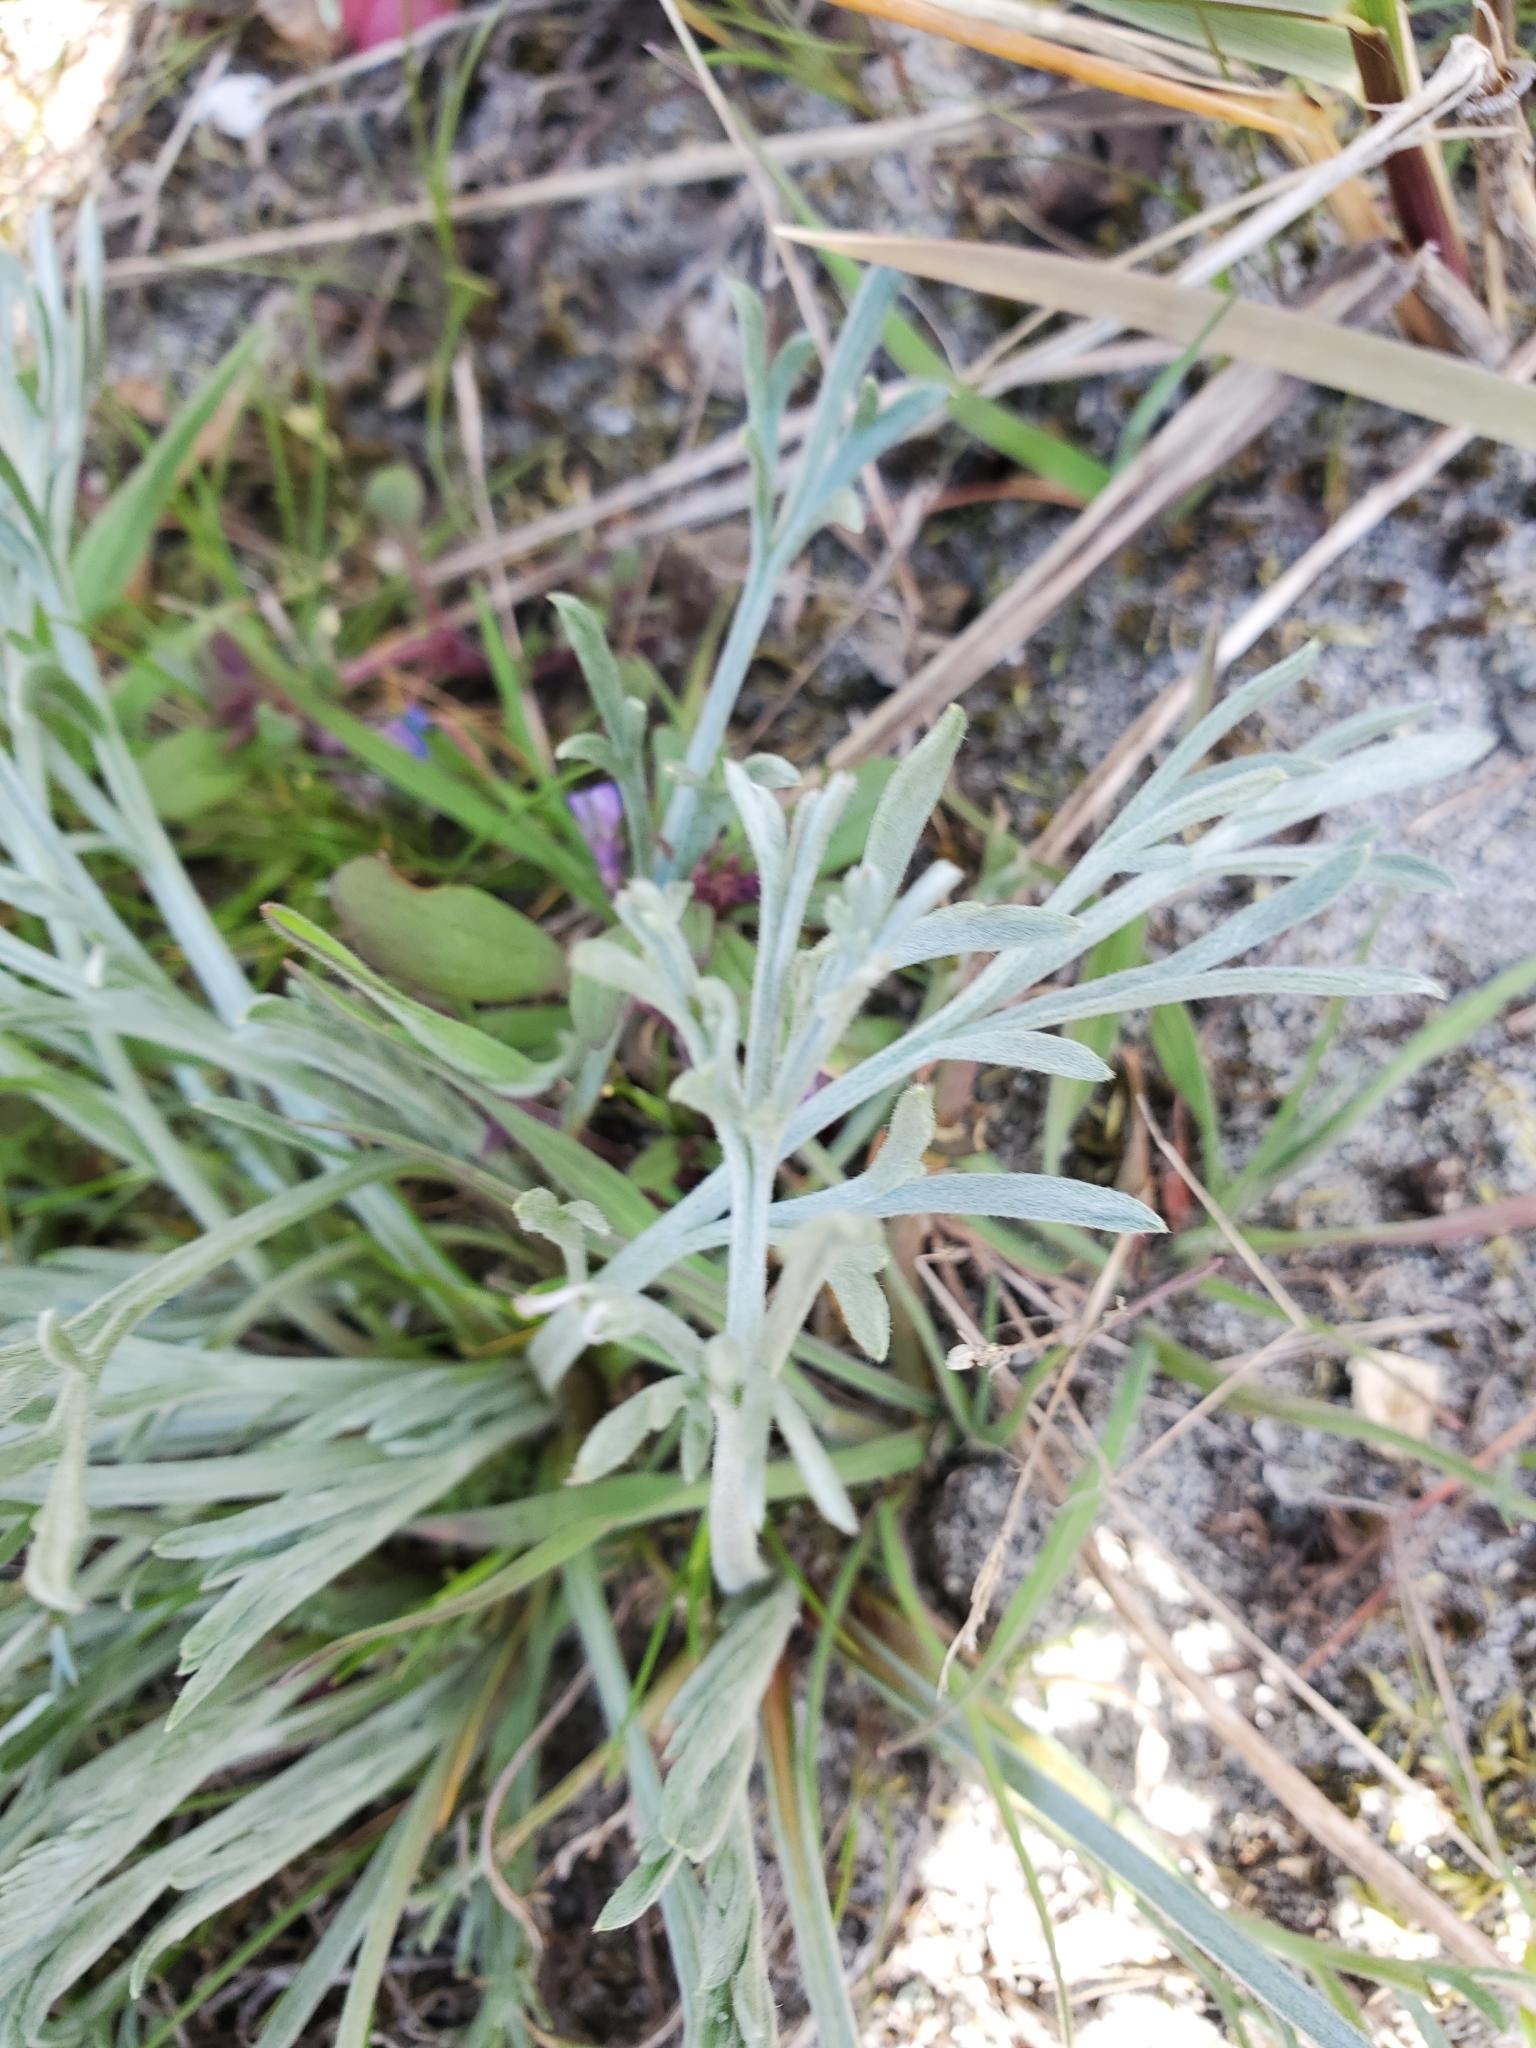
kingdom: Plantae
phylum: Tracheophyta
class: Magnoliopsida
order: Asterales
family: Asteraceae
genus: Artemisia
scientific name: Artemisia campestris
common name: Field wormwood
